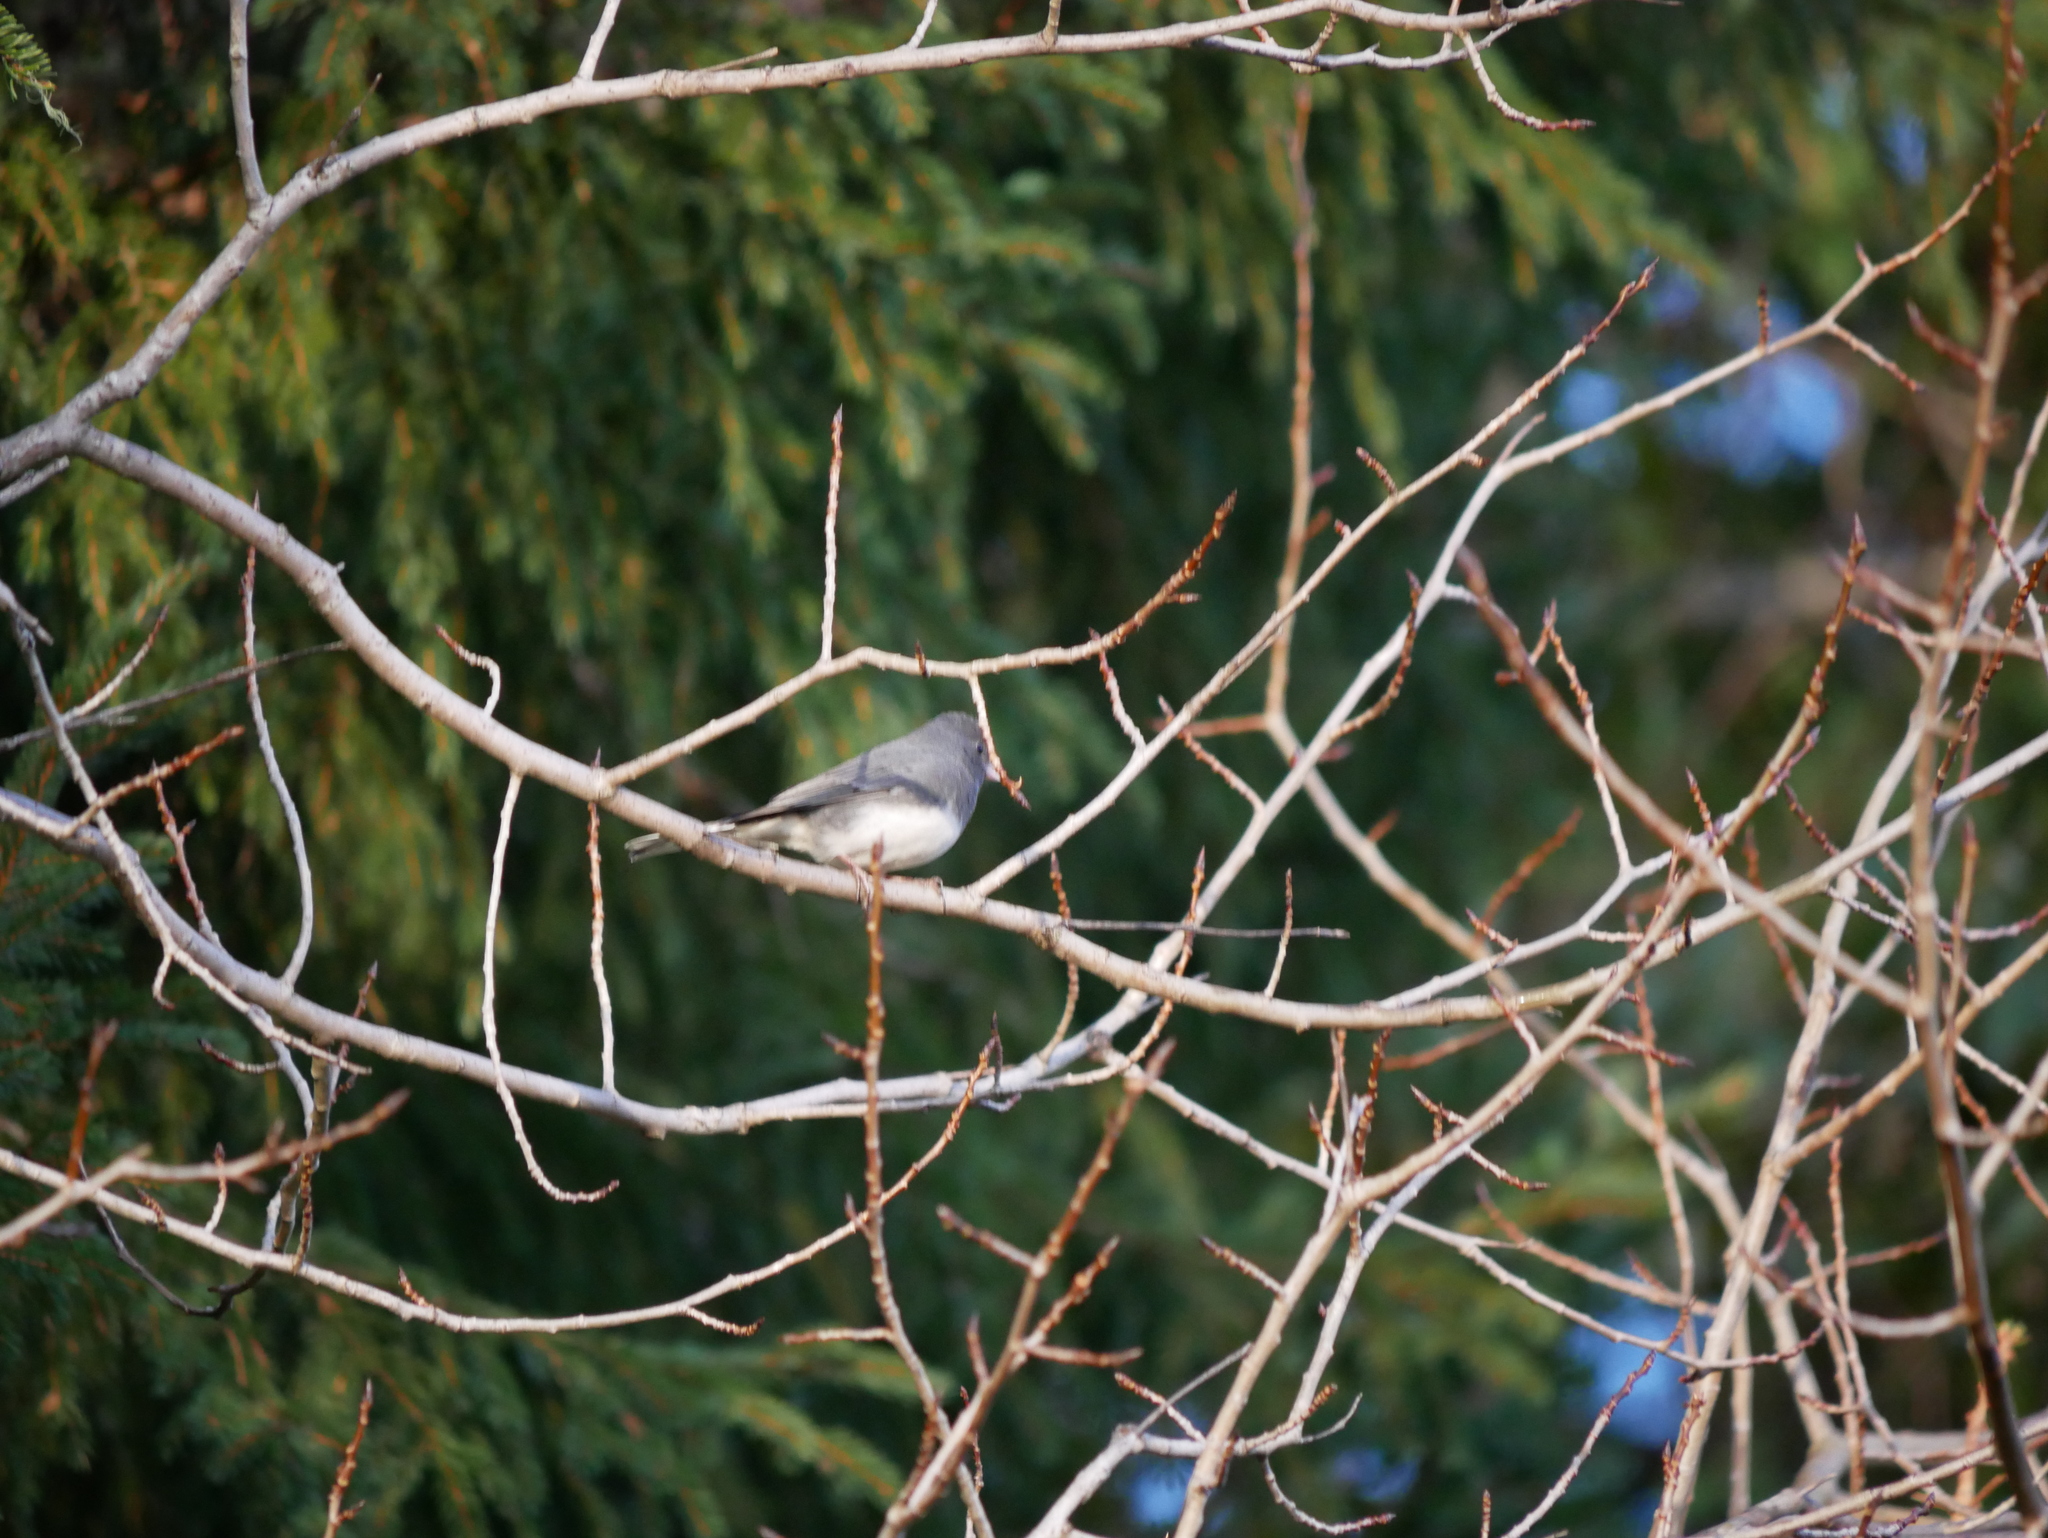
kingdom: Animalia
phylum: Chordata
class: Aves
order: Passeriformes
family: Passerellidae
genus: Junco
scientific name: Junco hyemalis
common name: Dark-eyed junco
